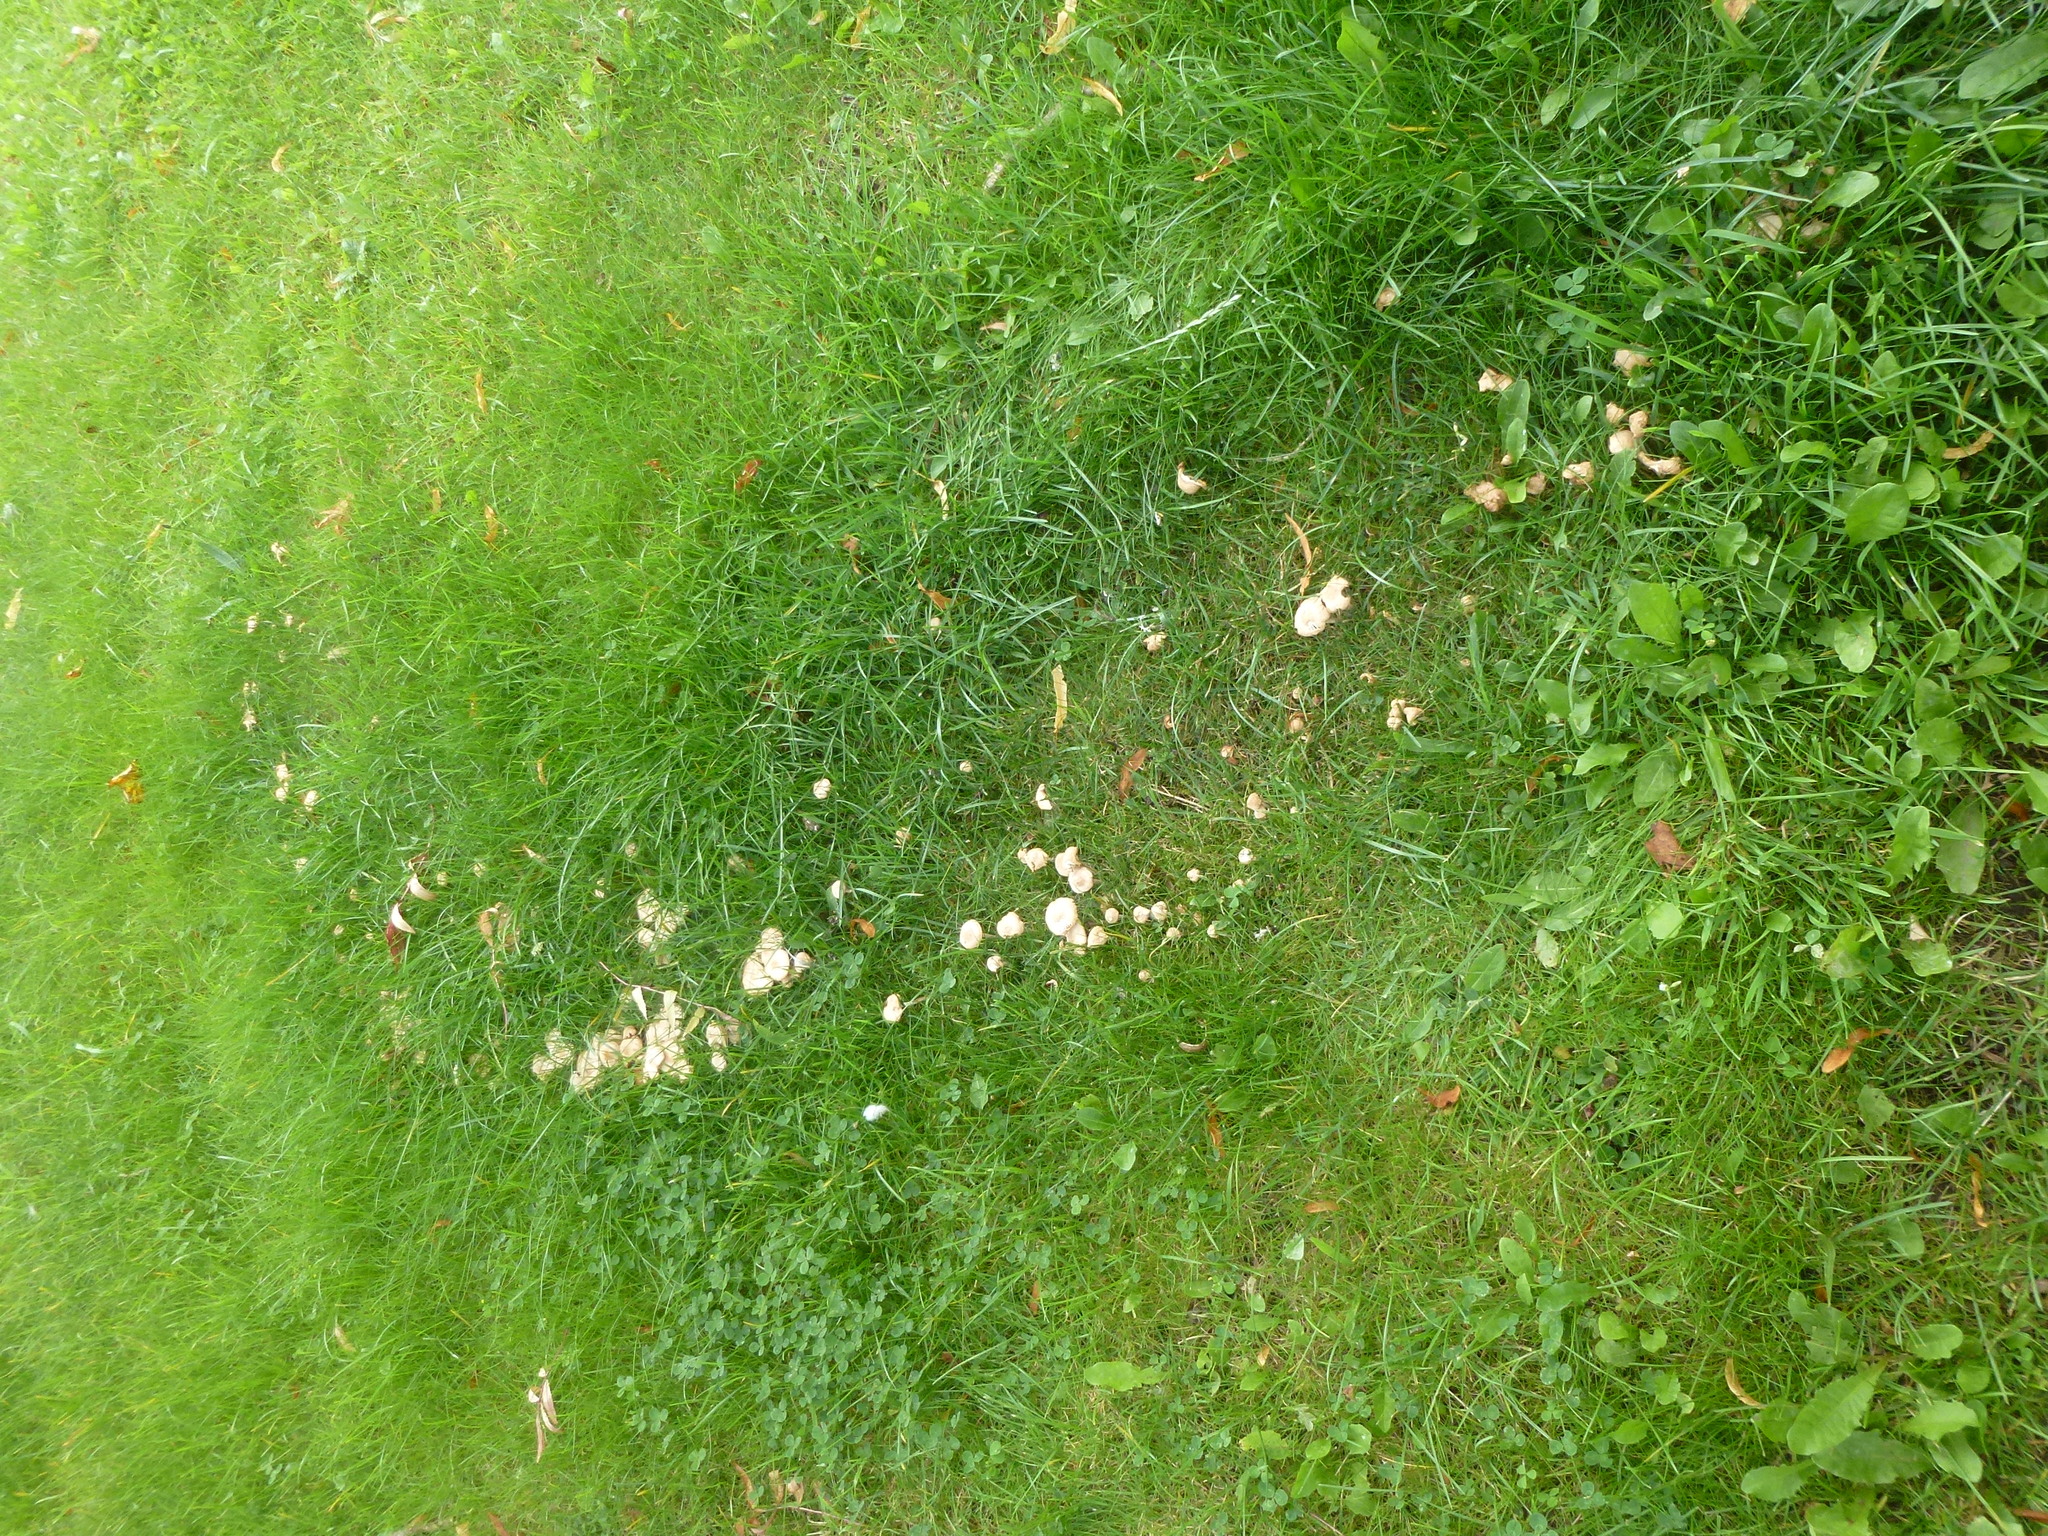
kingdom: Fungi
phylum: Basidiomycota
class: Agaricomycetes
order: Agaricales
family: Marasmiaceae
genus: Marasmius
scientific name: Marasmius oreades
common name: Fairy ring champignon
